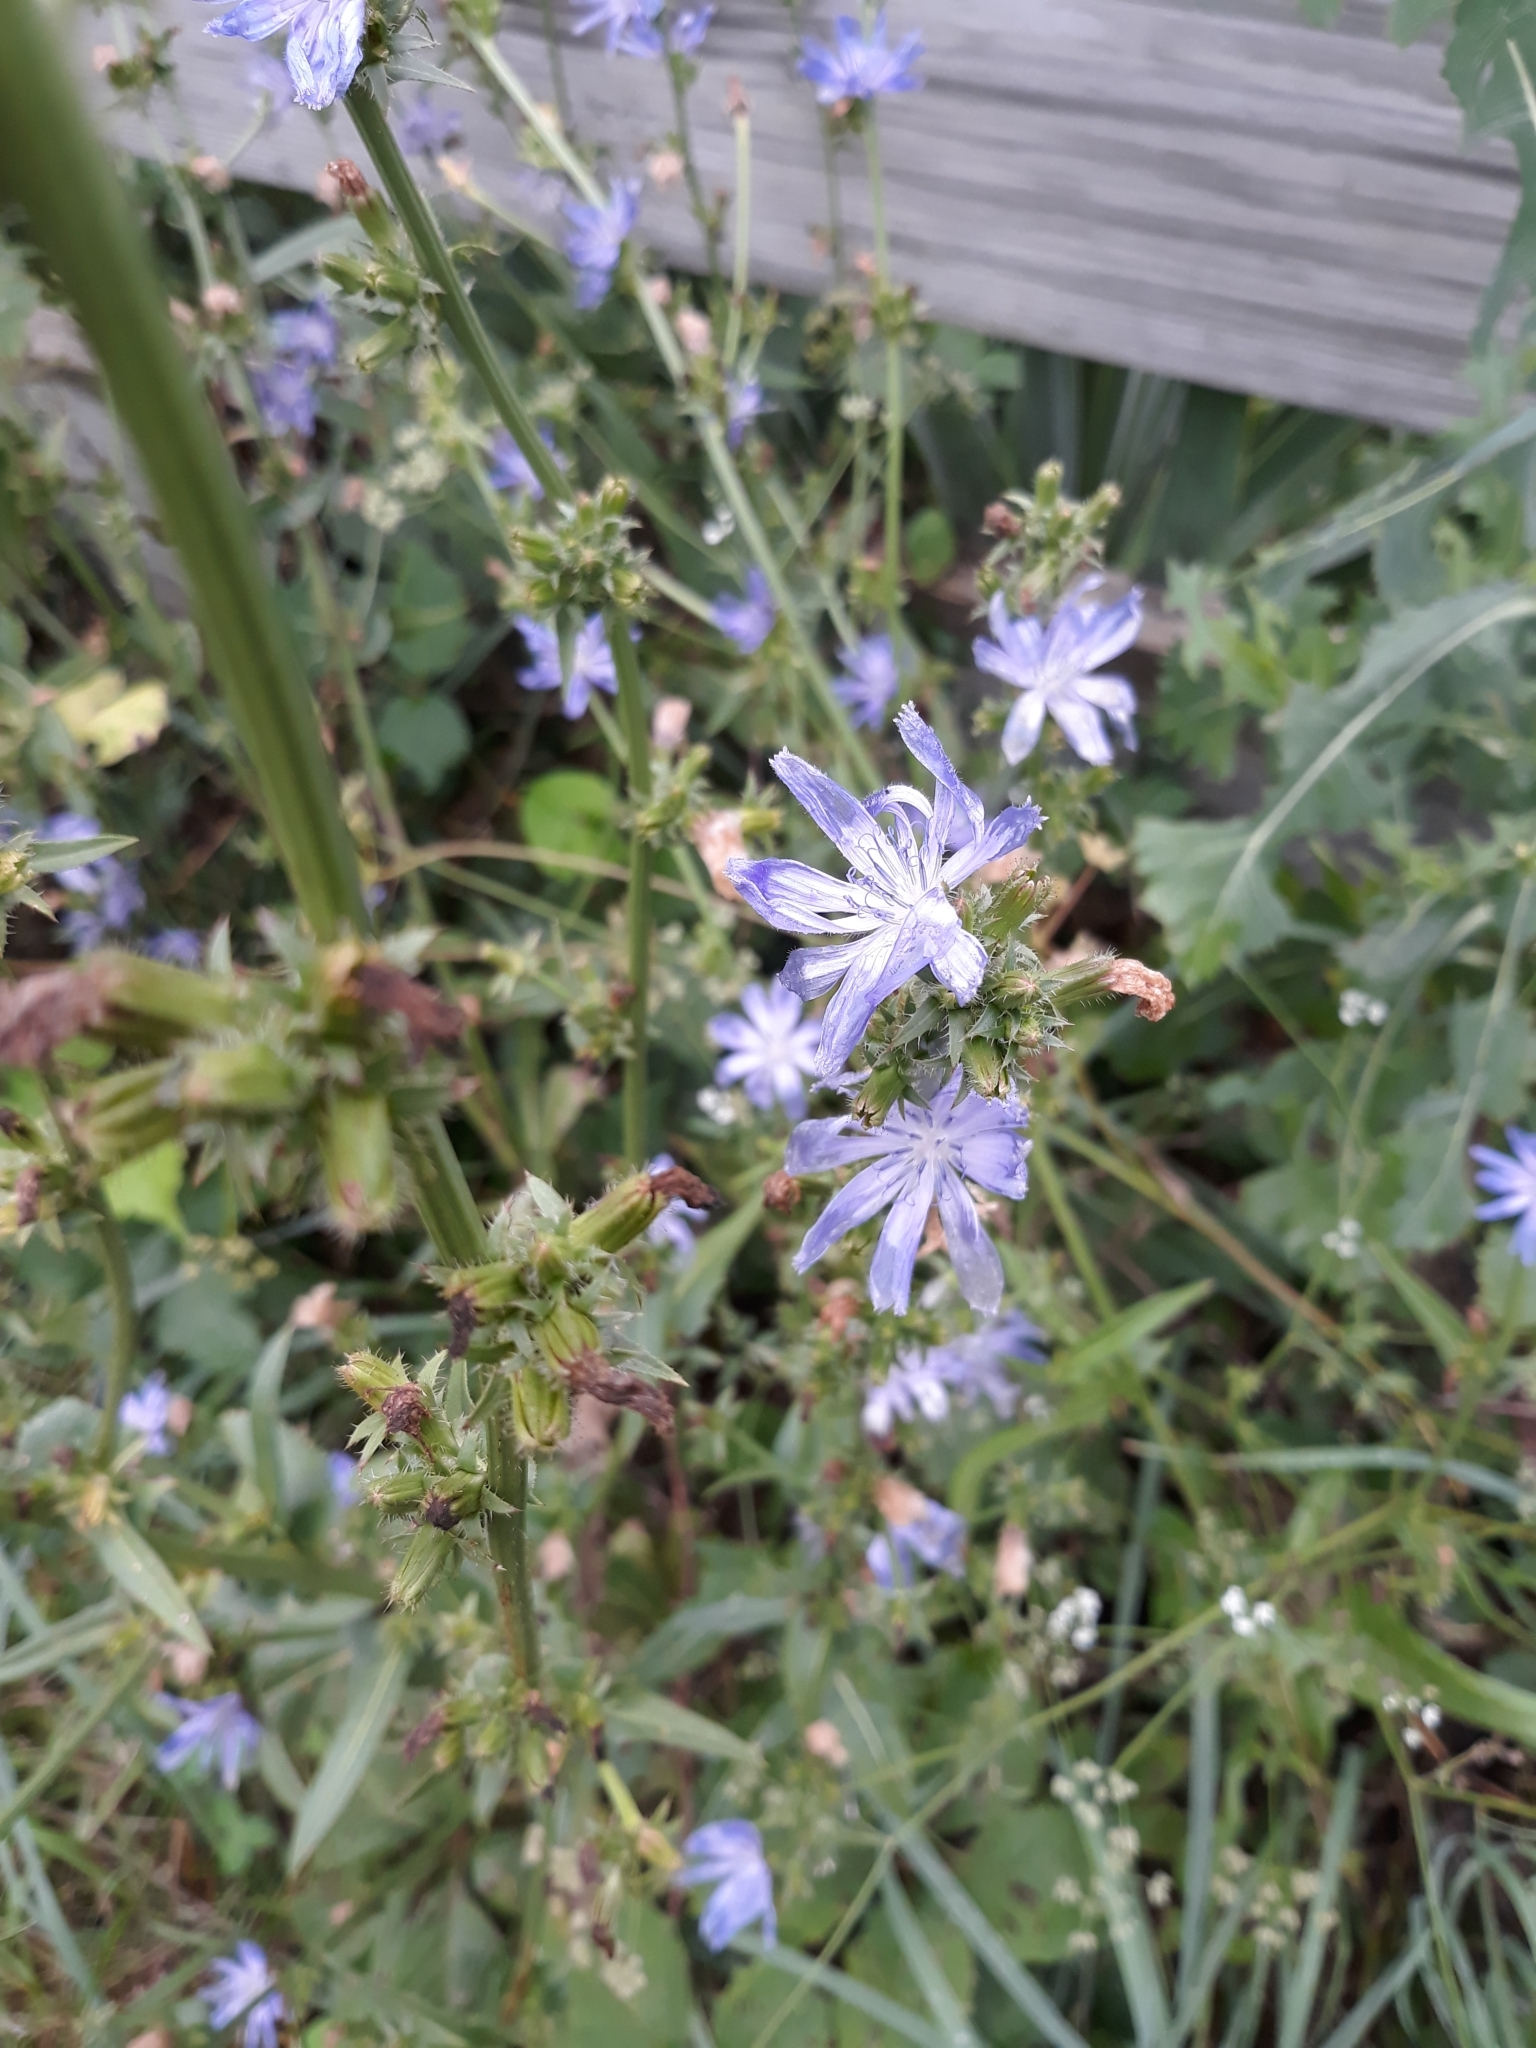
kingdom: Plantae
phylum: Tracheophyta
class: Magnoliopsida
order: Asterales
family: Asteraceae
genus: Cichorium
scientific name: Cichorium intybus
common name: Chicory
